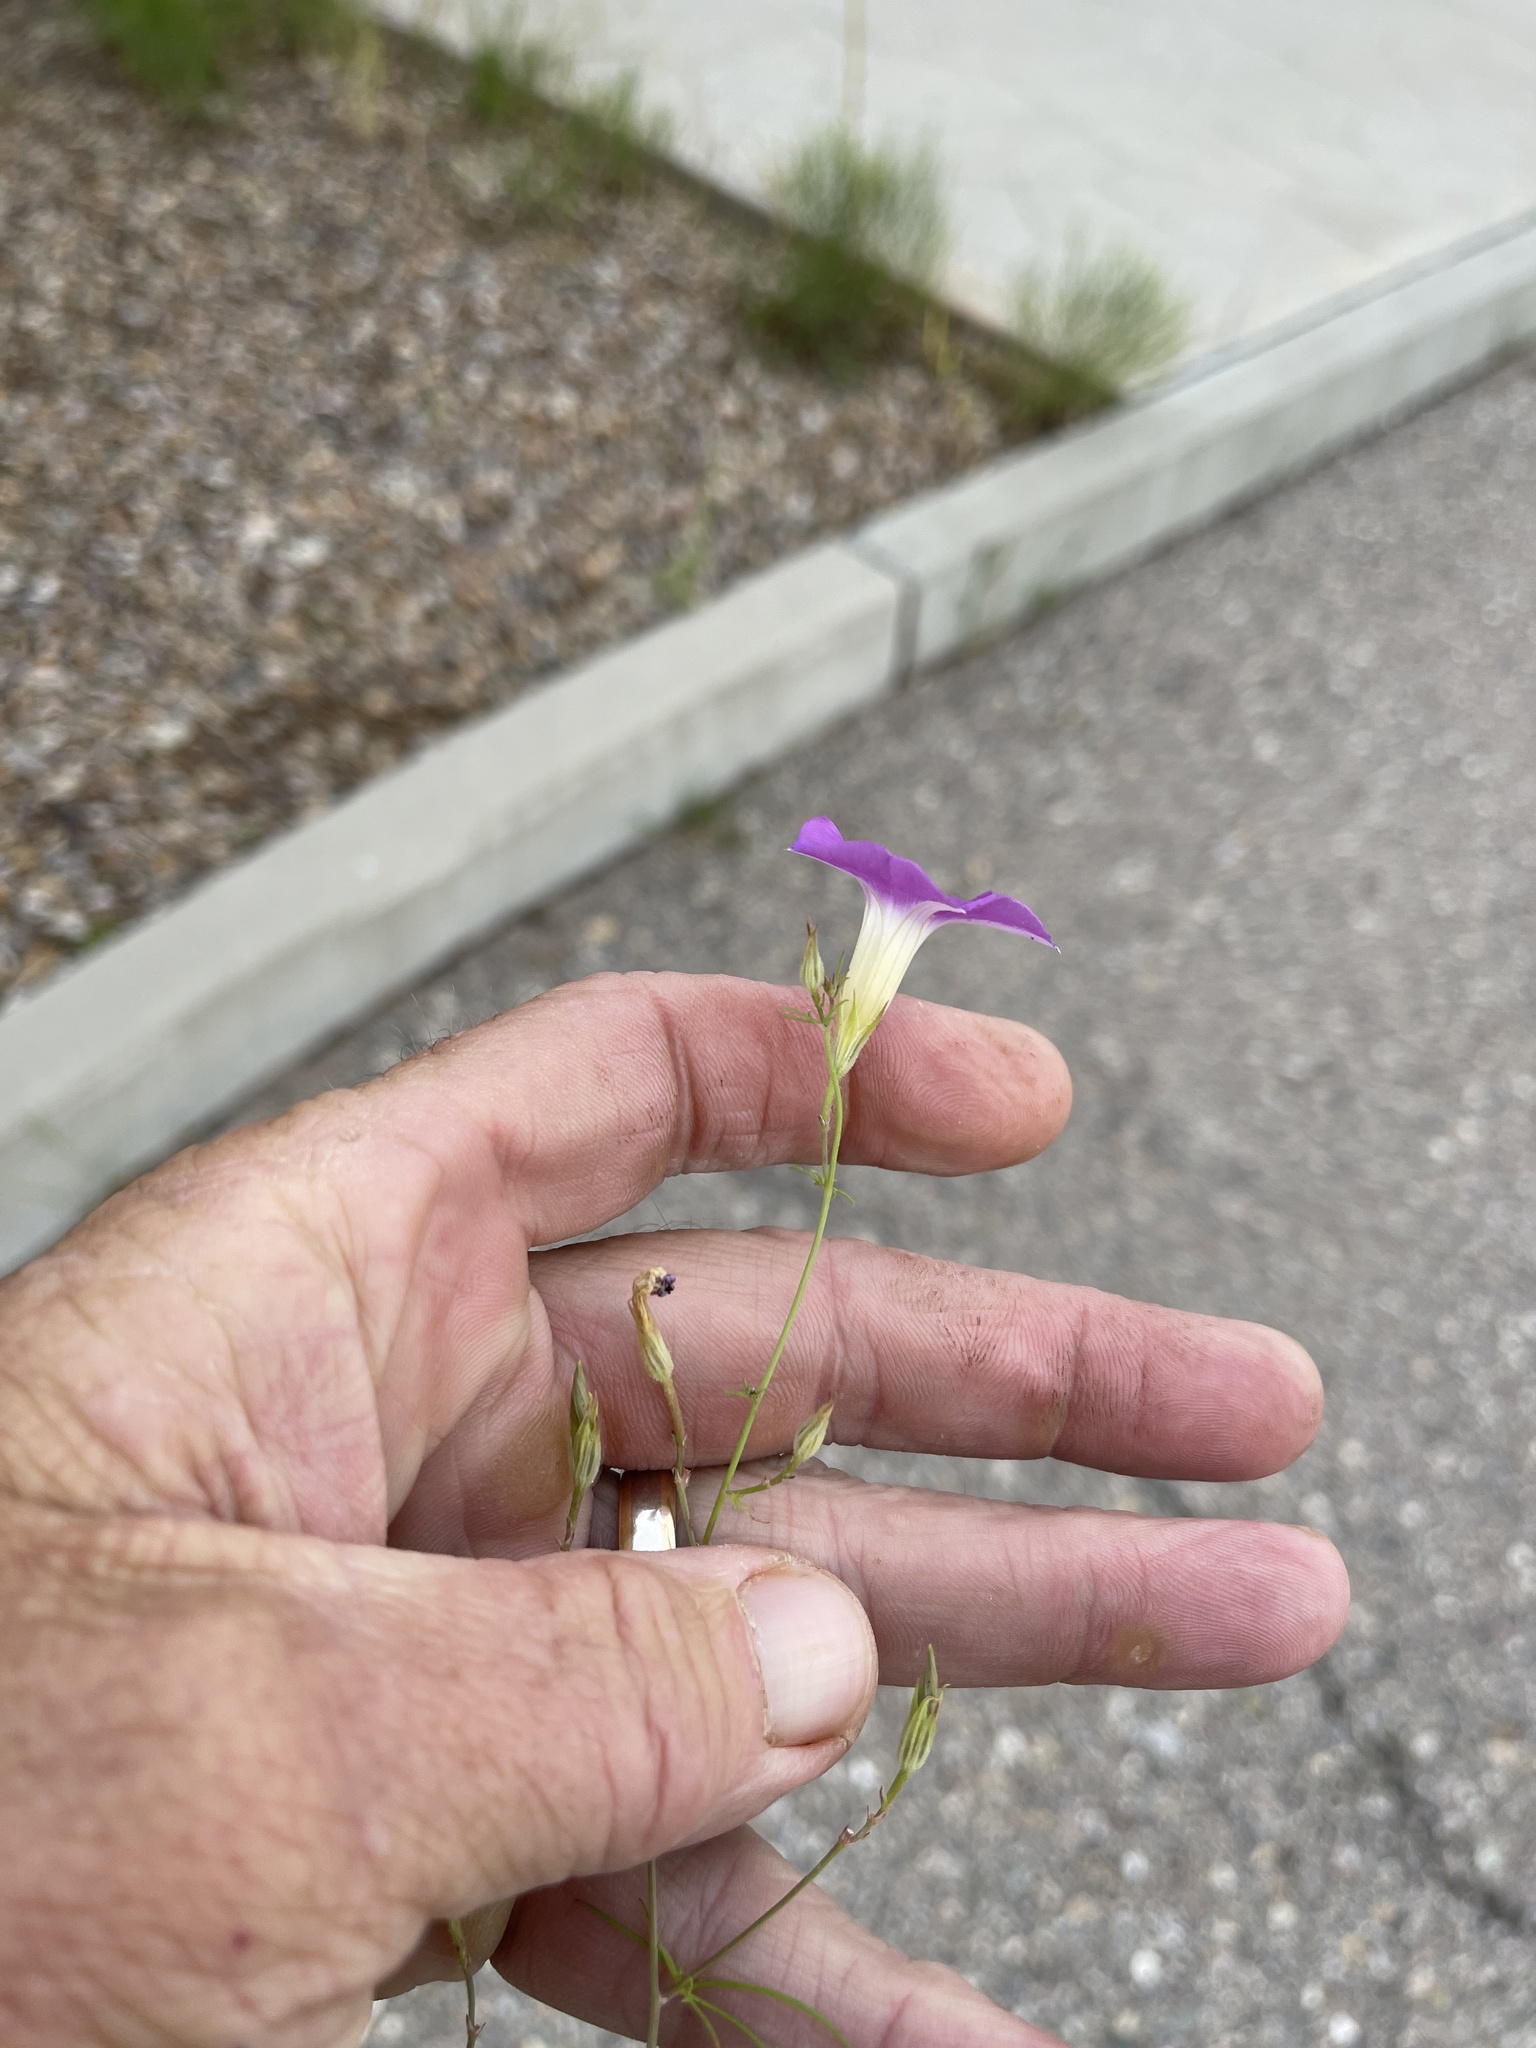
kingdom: Plantae
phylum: Tracheophyta
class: Magnoliopsida
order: Solanales
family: Convolvulaceae
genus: Ipomoea
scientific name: Ipomoea ternifolia
